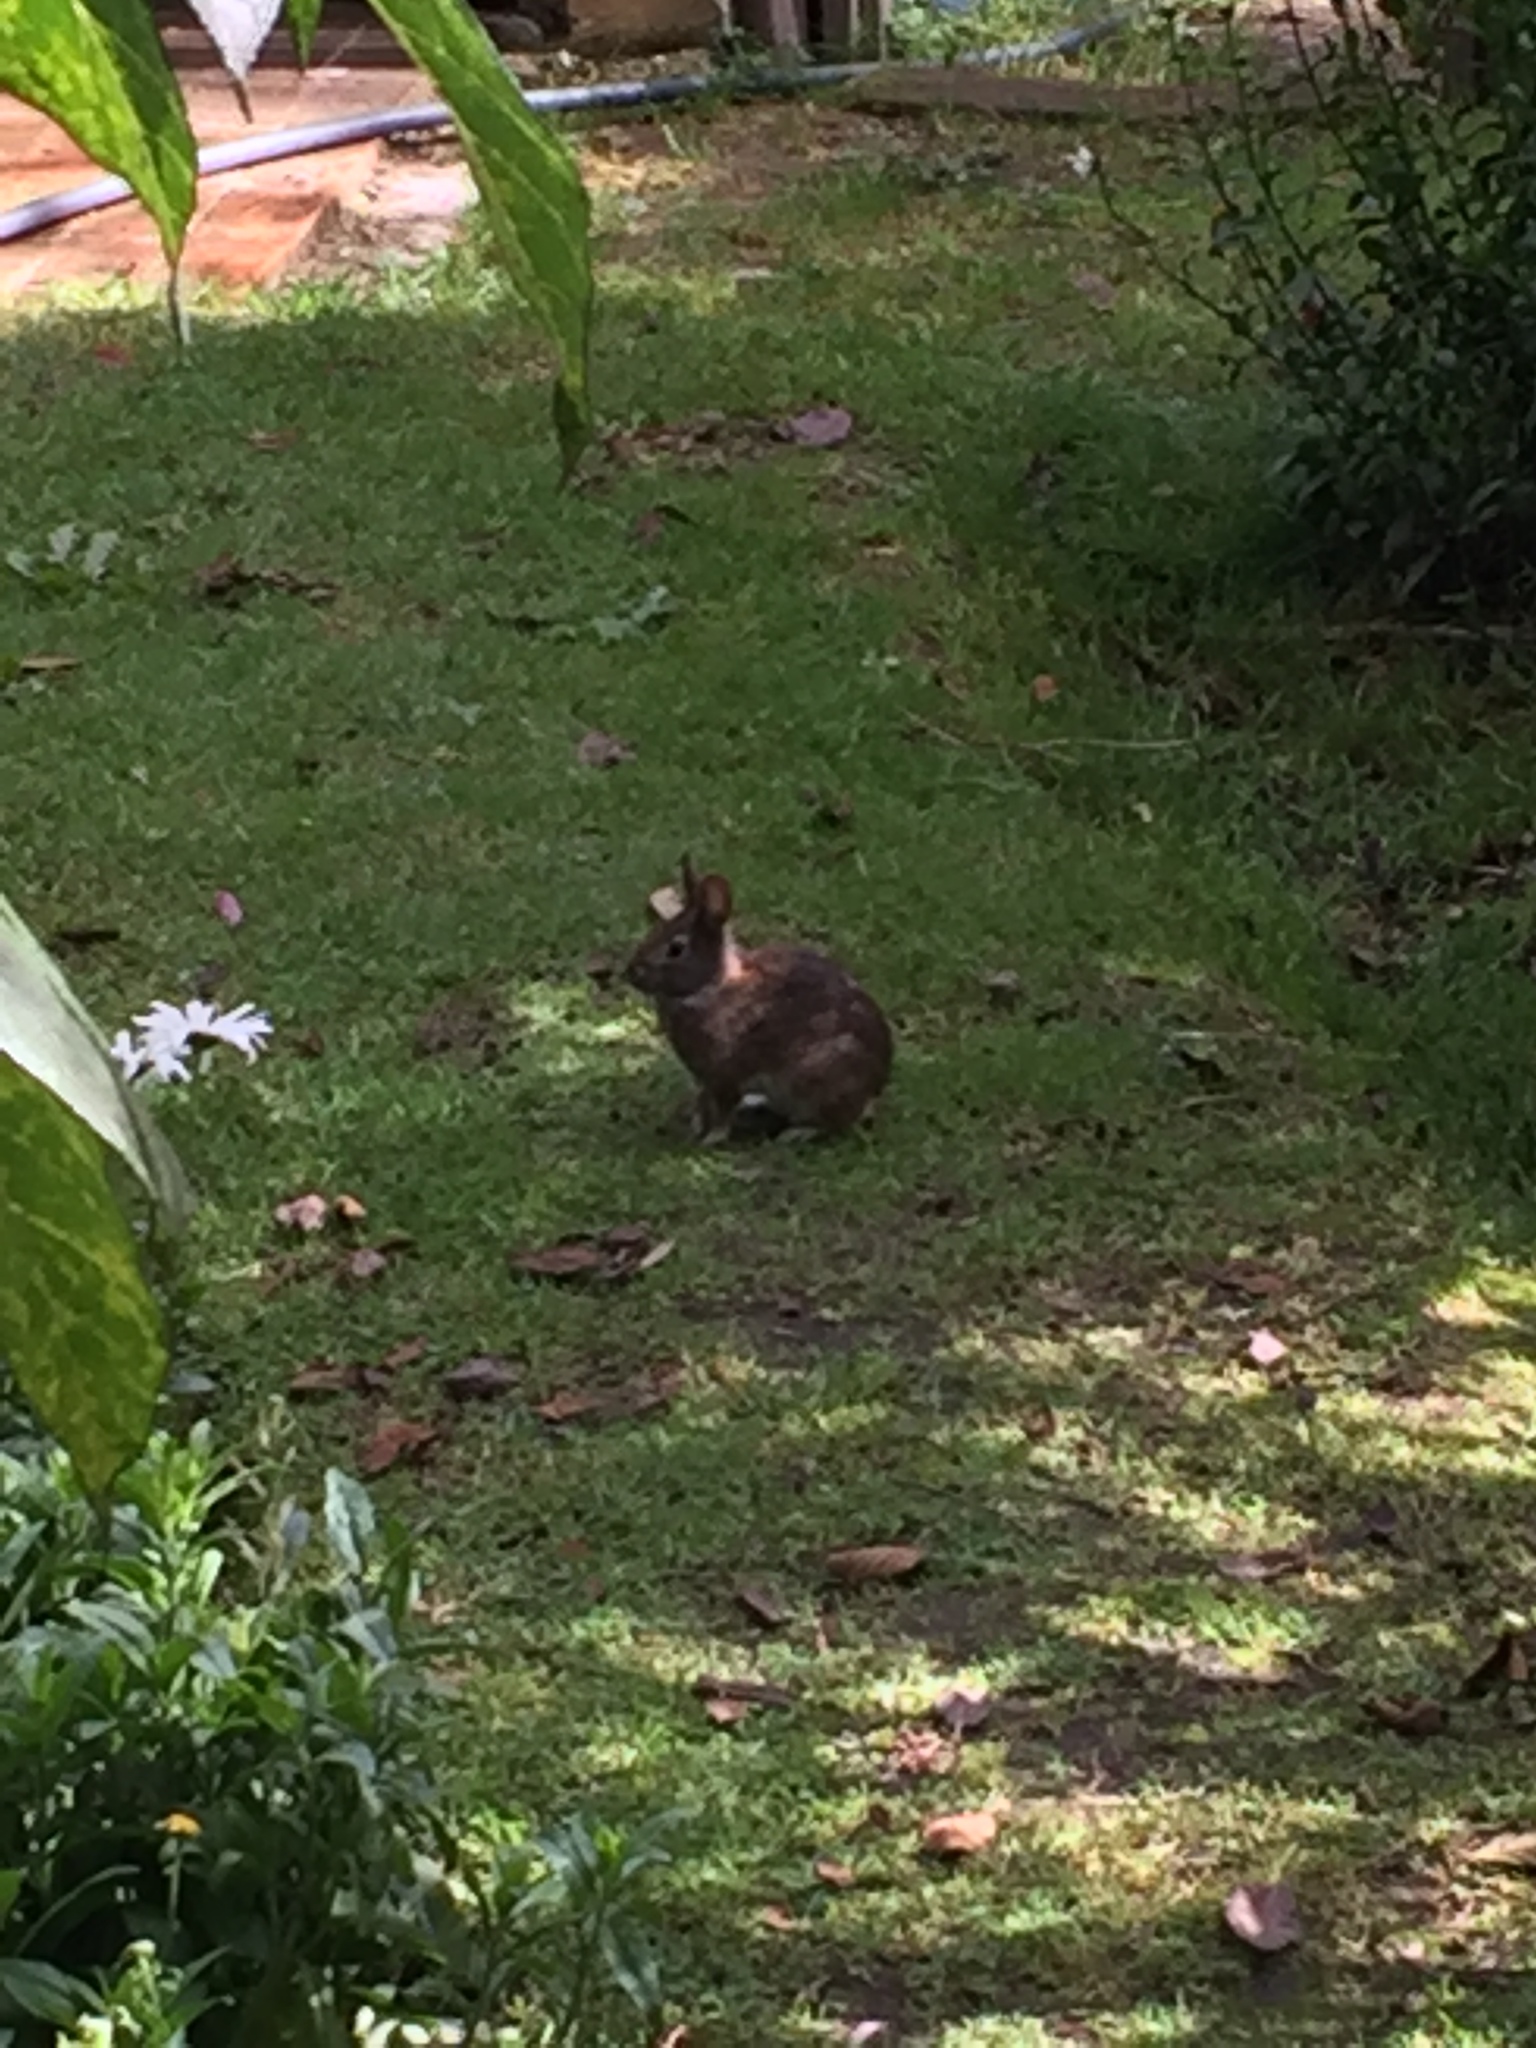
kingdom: Animalia
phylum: Chordata
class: Mammalia
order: Lagomorpha
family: Leporidae
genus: Sylvilagus
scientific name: Sylvilagus andinus
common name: Andean cottontail
